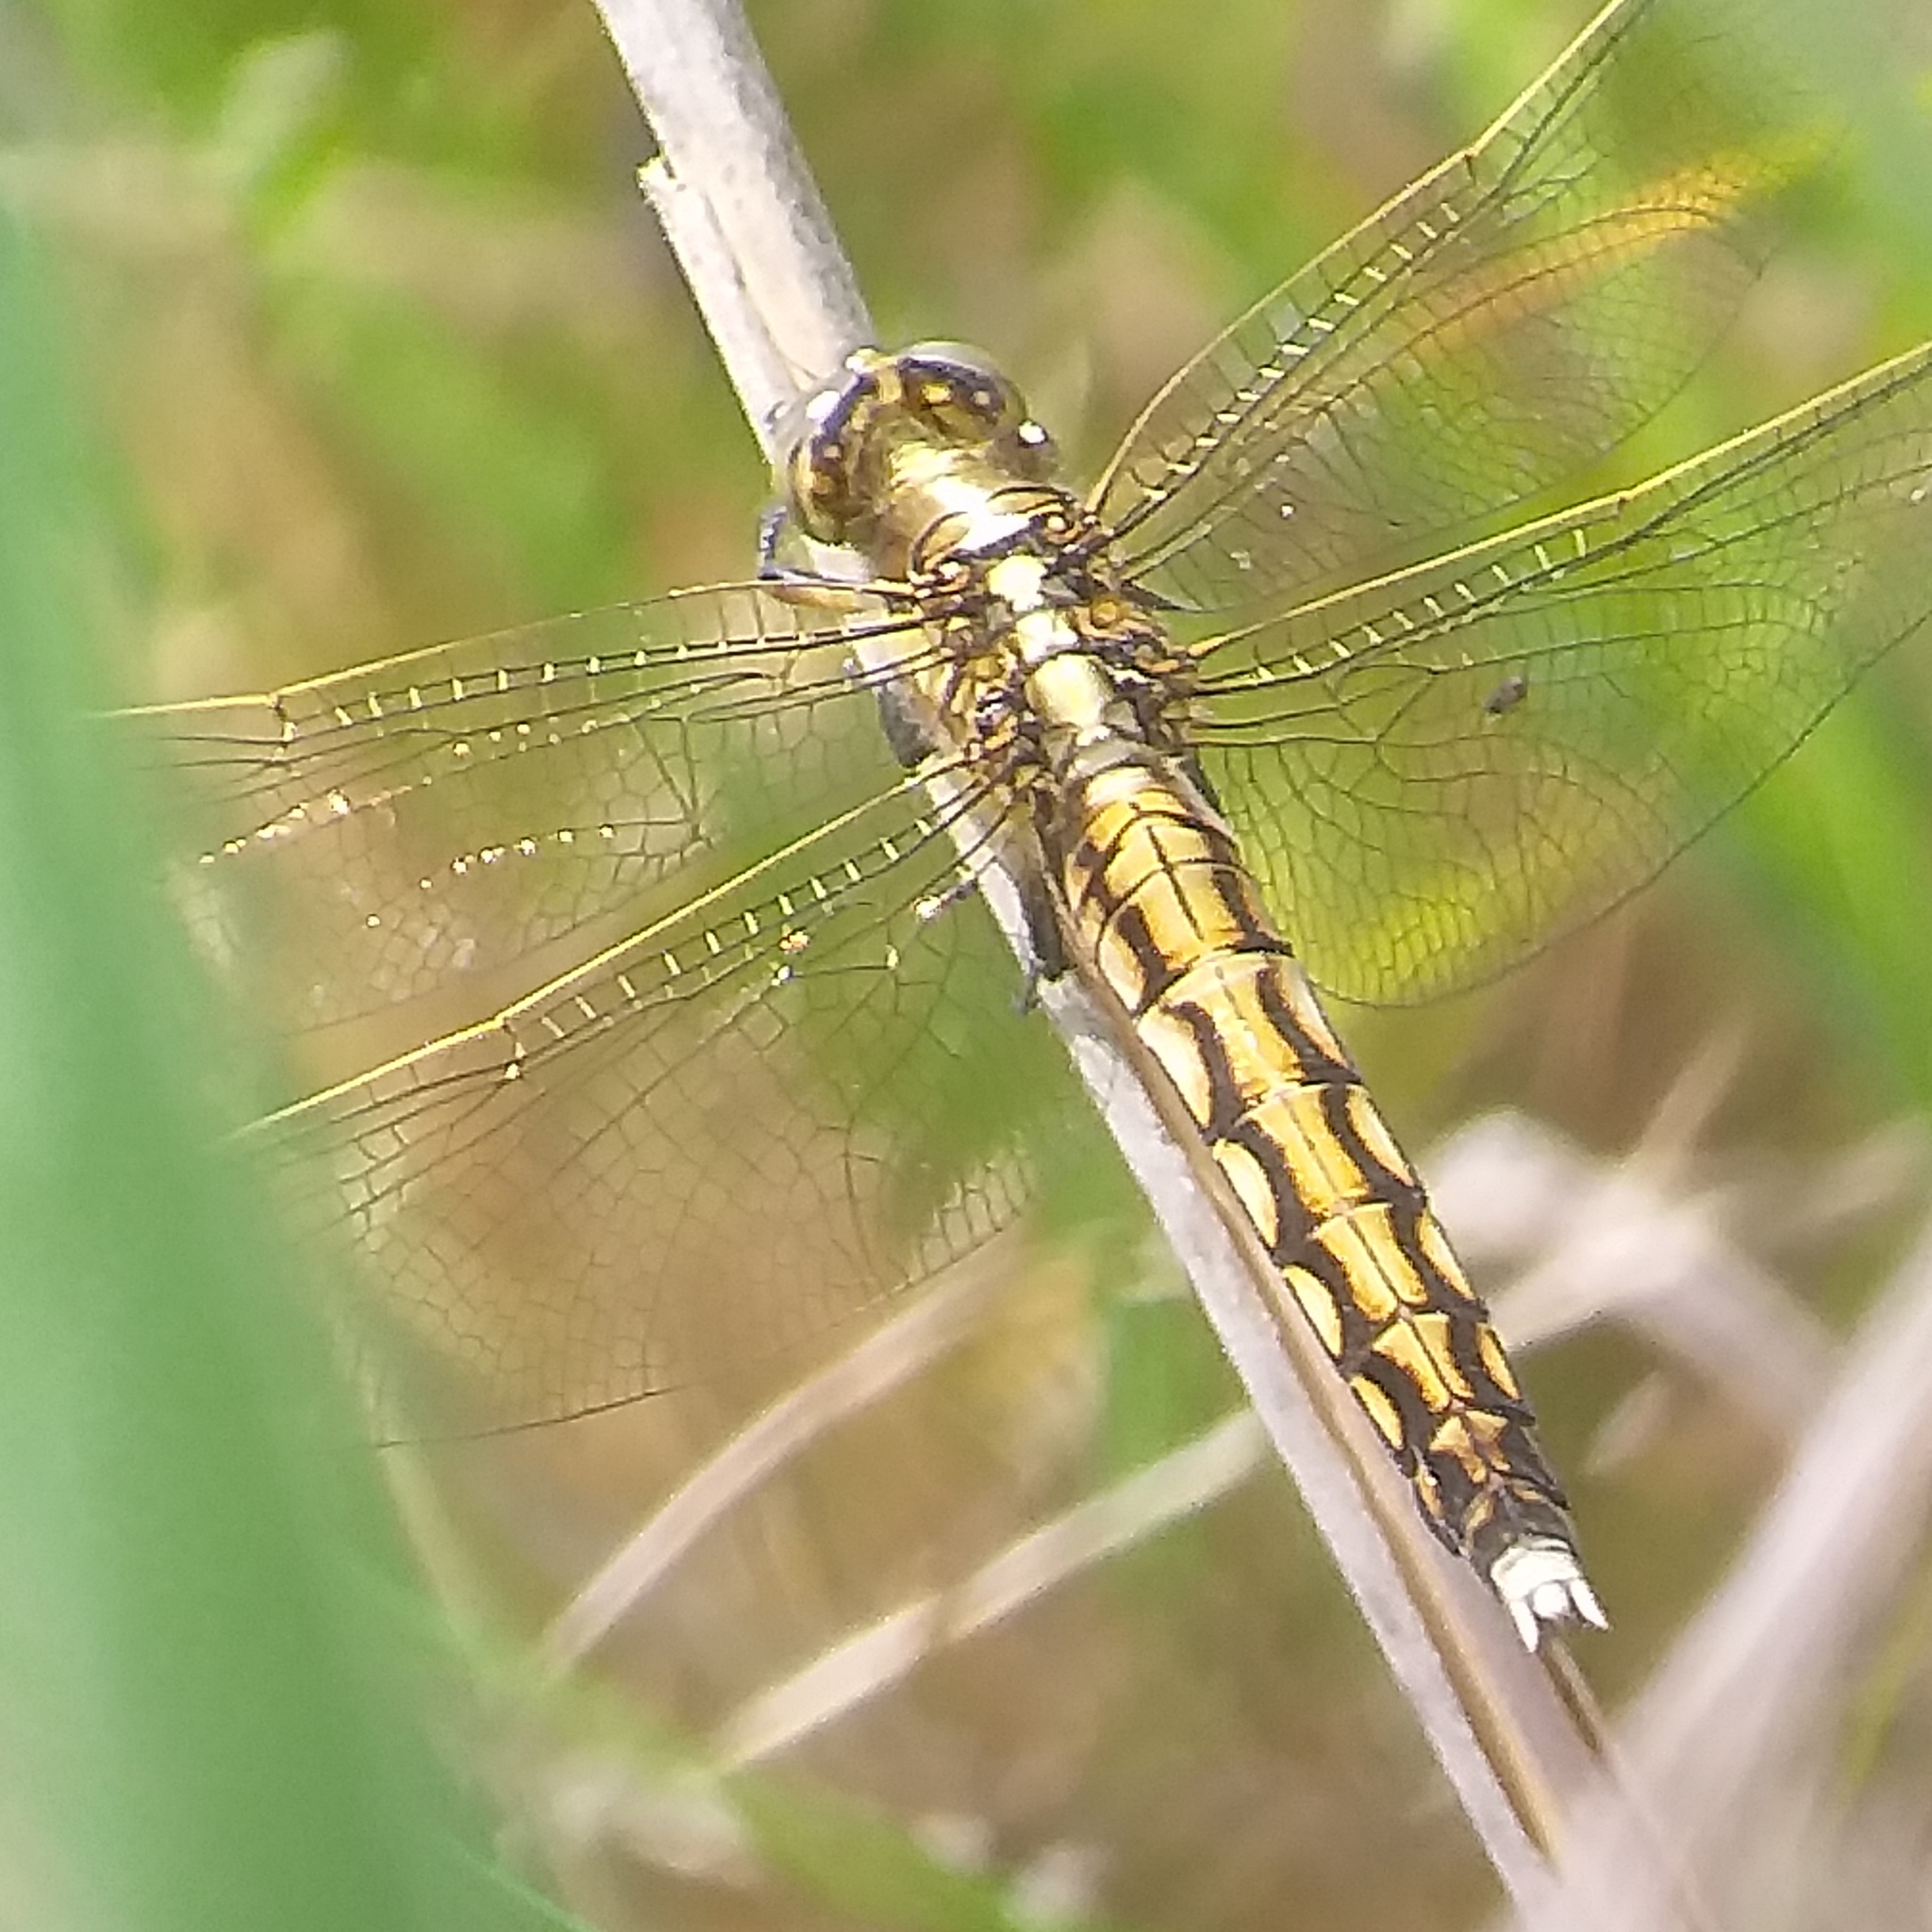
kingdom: Animalia
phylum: Arthropoda
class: Insecta
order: Odonata
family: Libellulidae
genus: Orthetrum
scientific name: Orthetrum albistylum
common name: White-tailed skimmer
